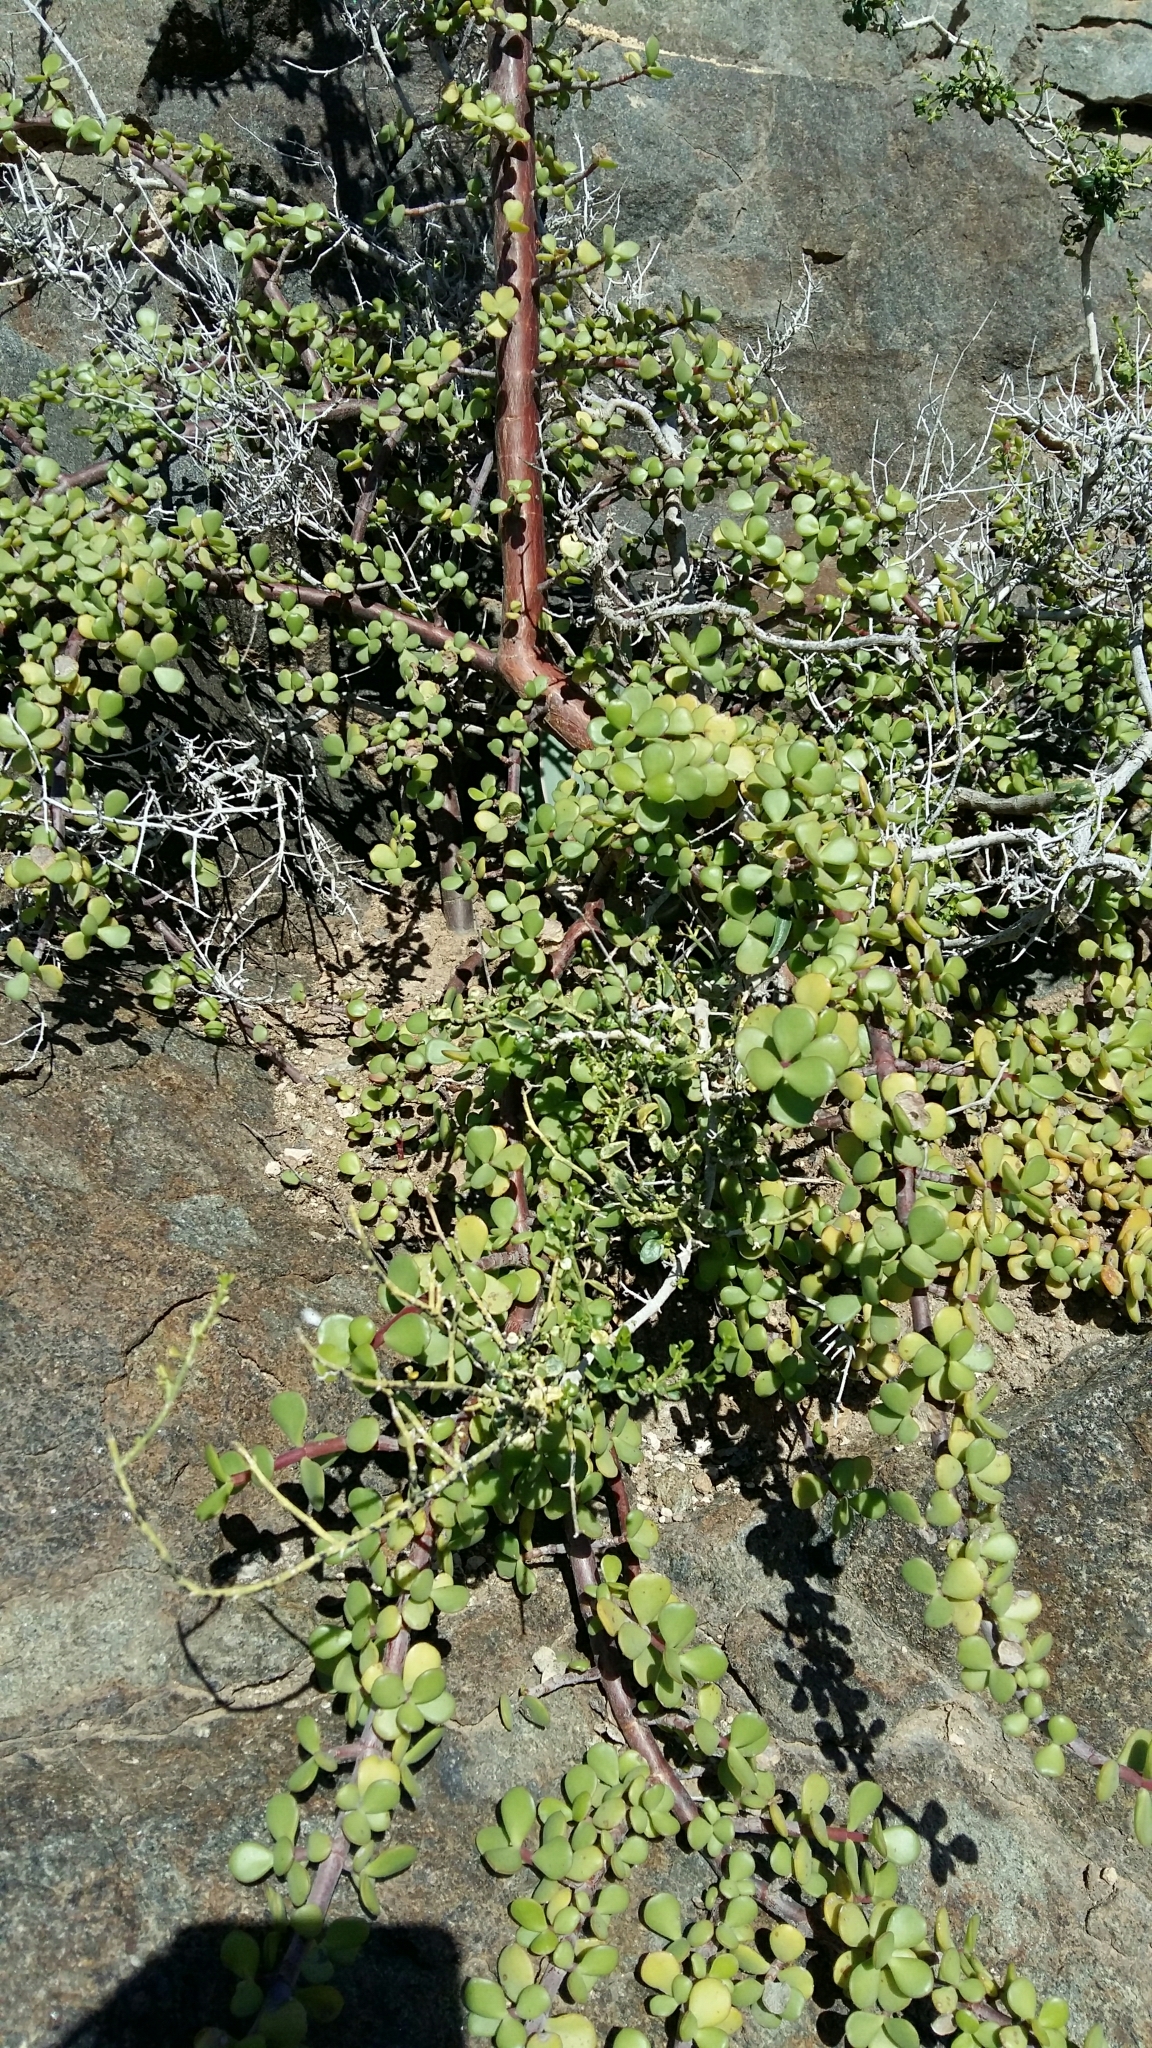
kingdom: Plantae
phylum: Tracheophyta
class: Magnoliopsida
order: Caryophyllales
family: Didiereaceae
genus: Portulacaria
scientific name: Portulacaria afra
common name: Elephant-bush
